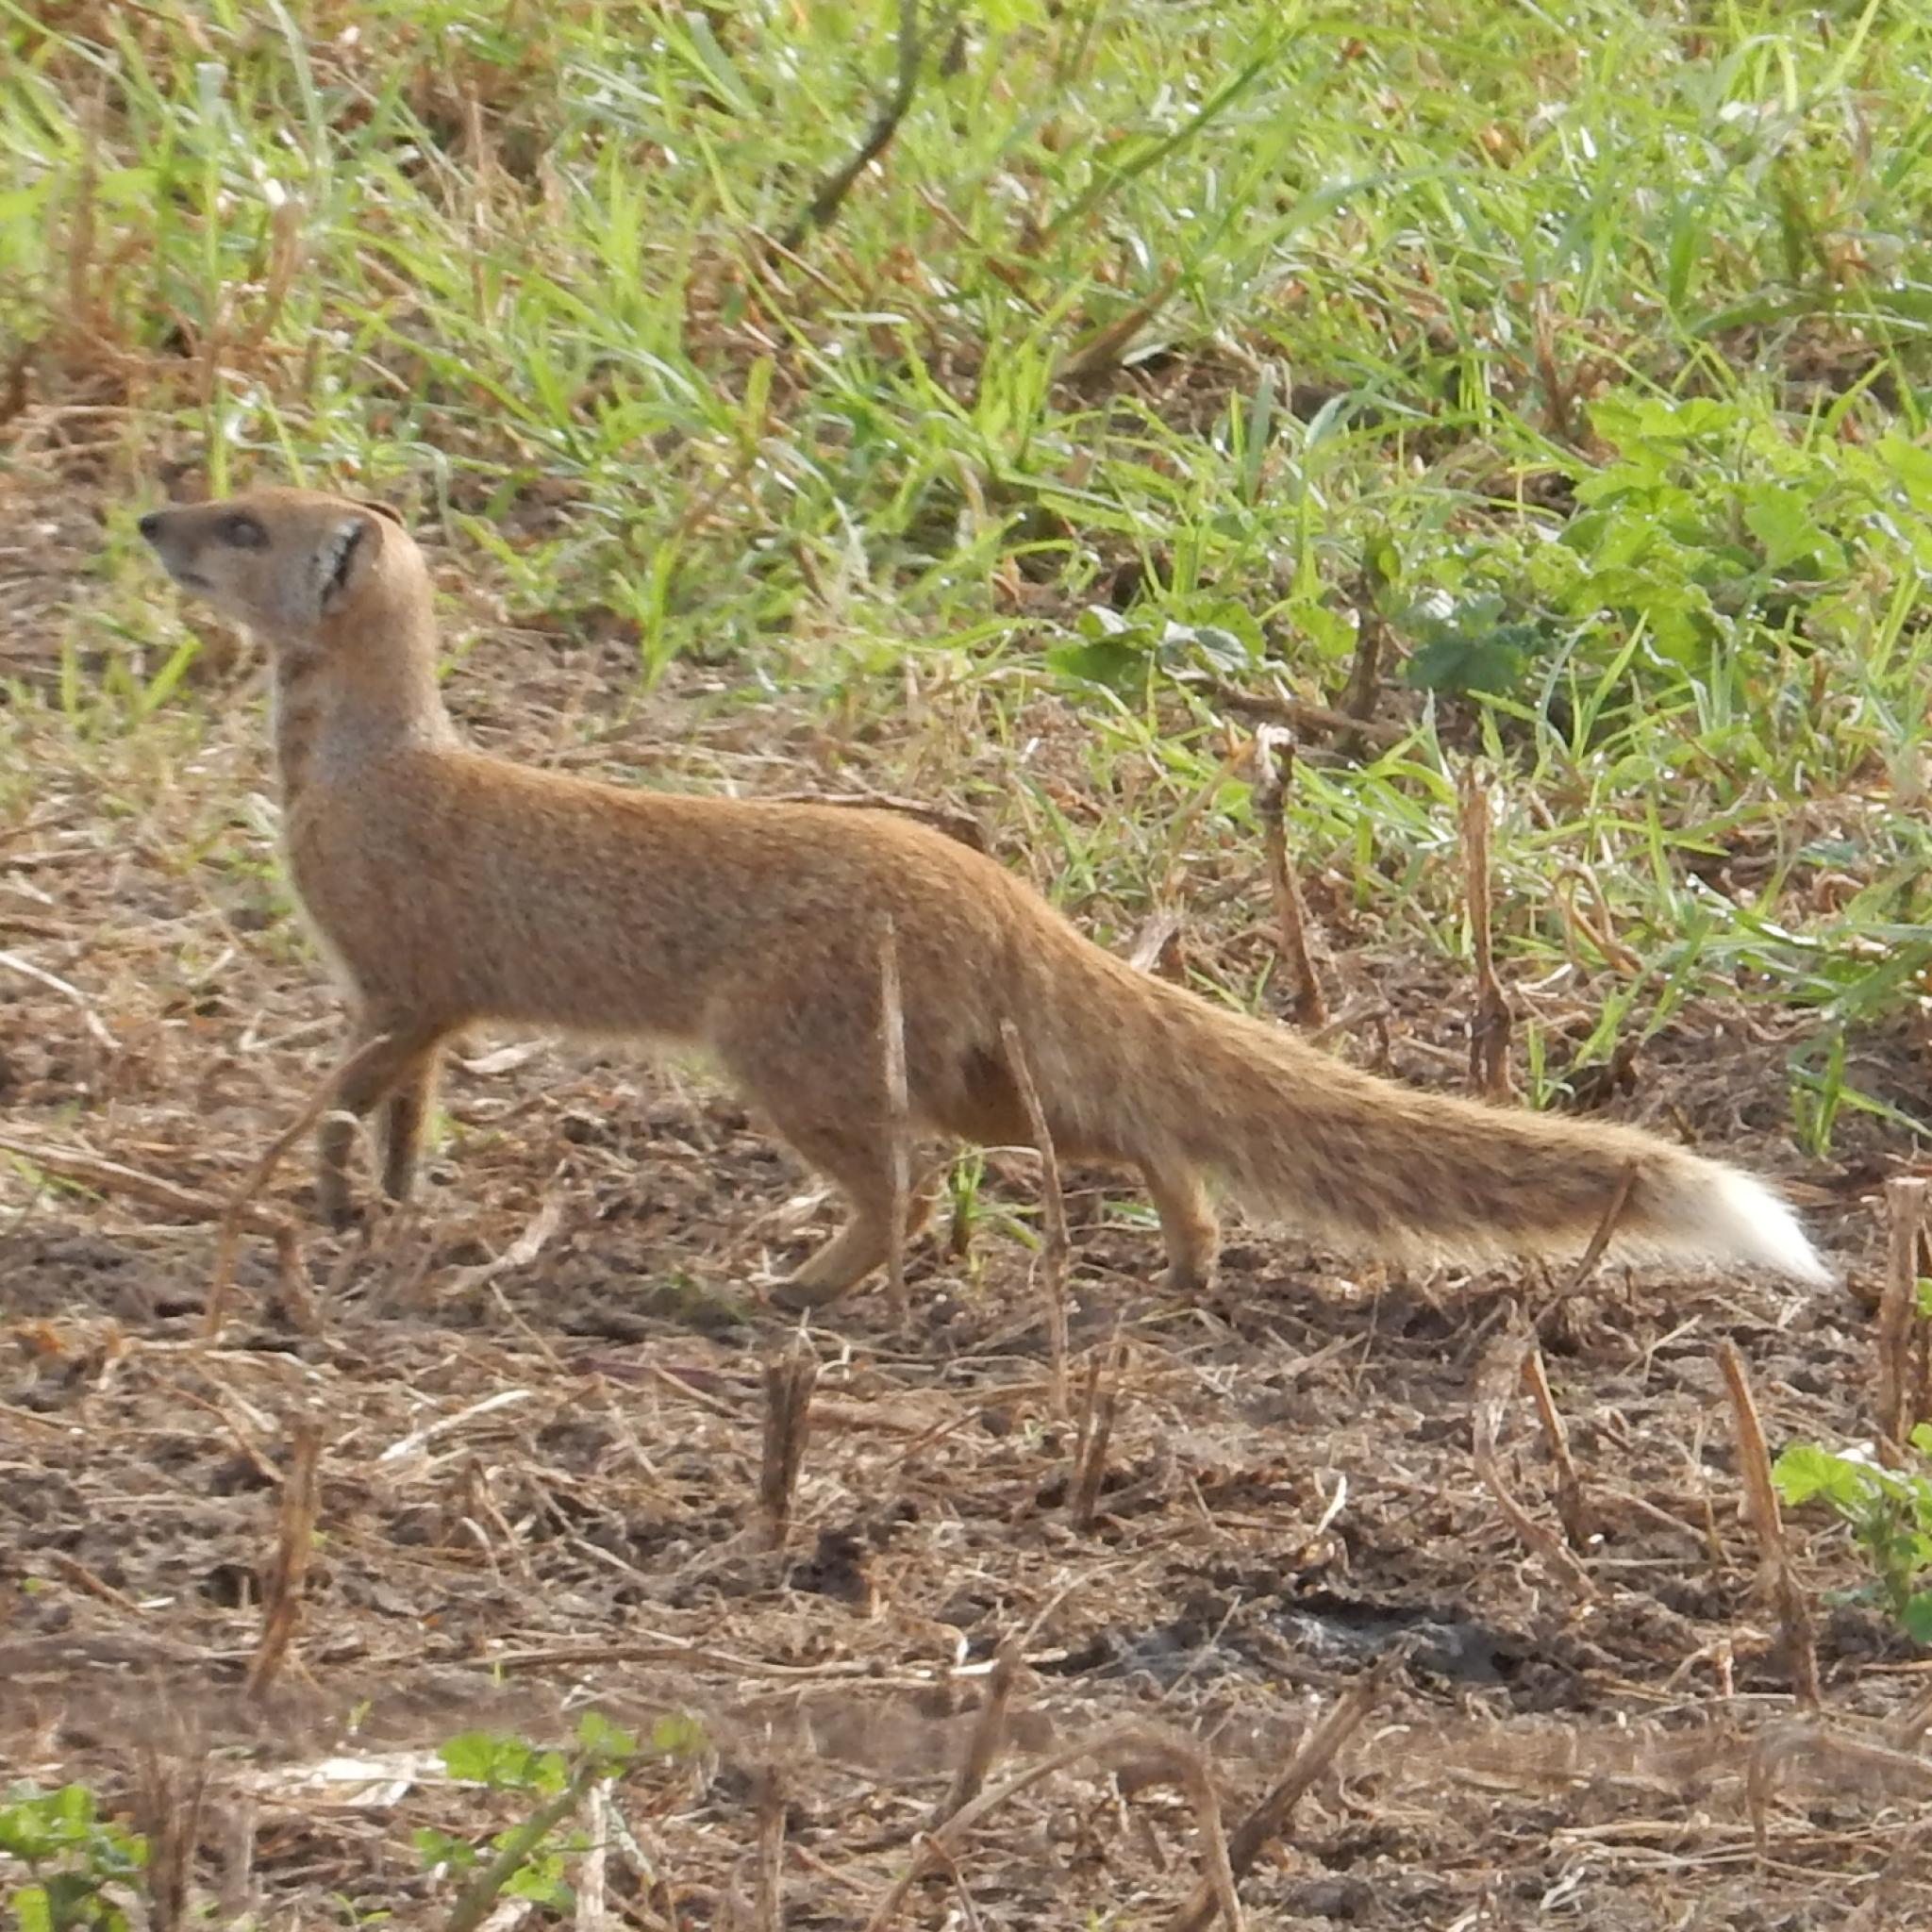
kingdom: Animalia
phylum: Chordata
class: Mammalia
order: Carnivora
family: Herpestidae
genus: Cynictis
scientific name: Cynictis penicillata
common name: Yellow mongoose
